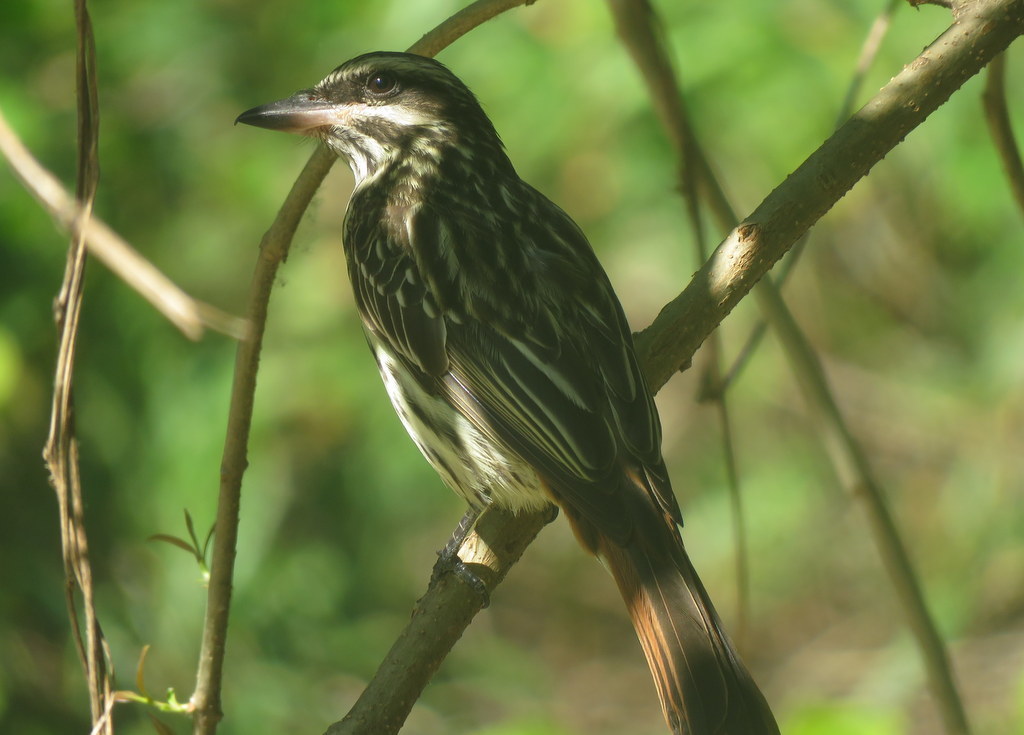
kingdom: Animalia
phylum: Chordata
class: Aves
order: Passeriformes
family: Tyrannidae
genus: Myiodynastes
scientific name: Myiodynastes maculatus
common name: Streaked flycatcher
